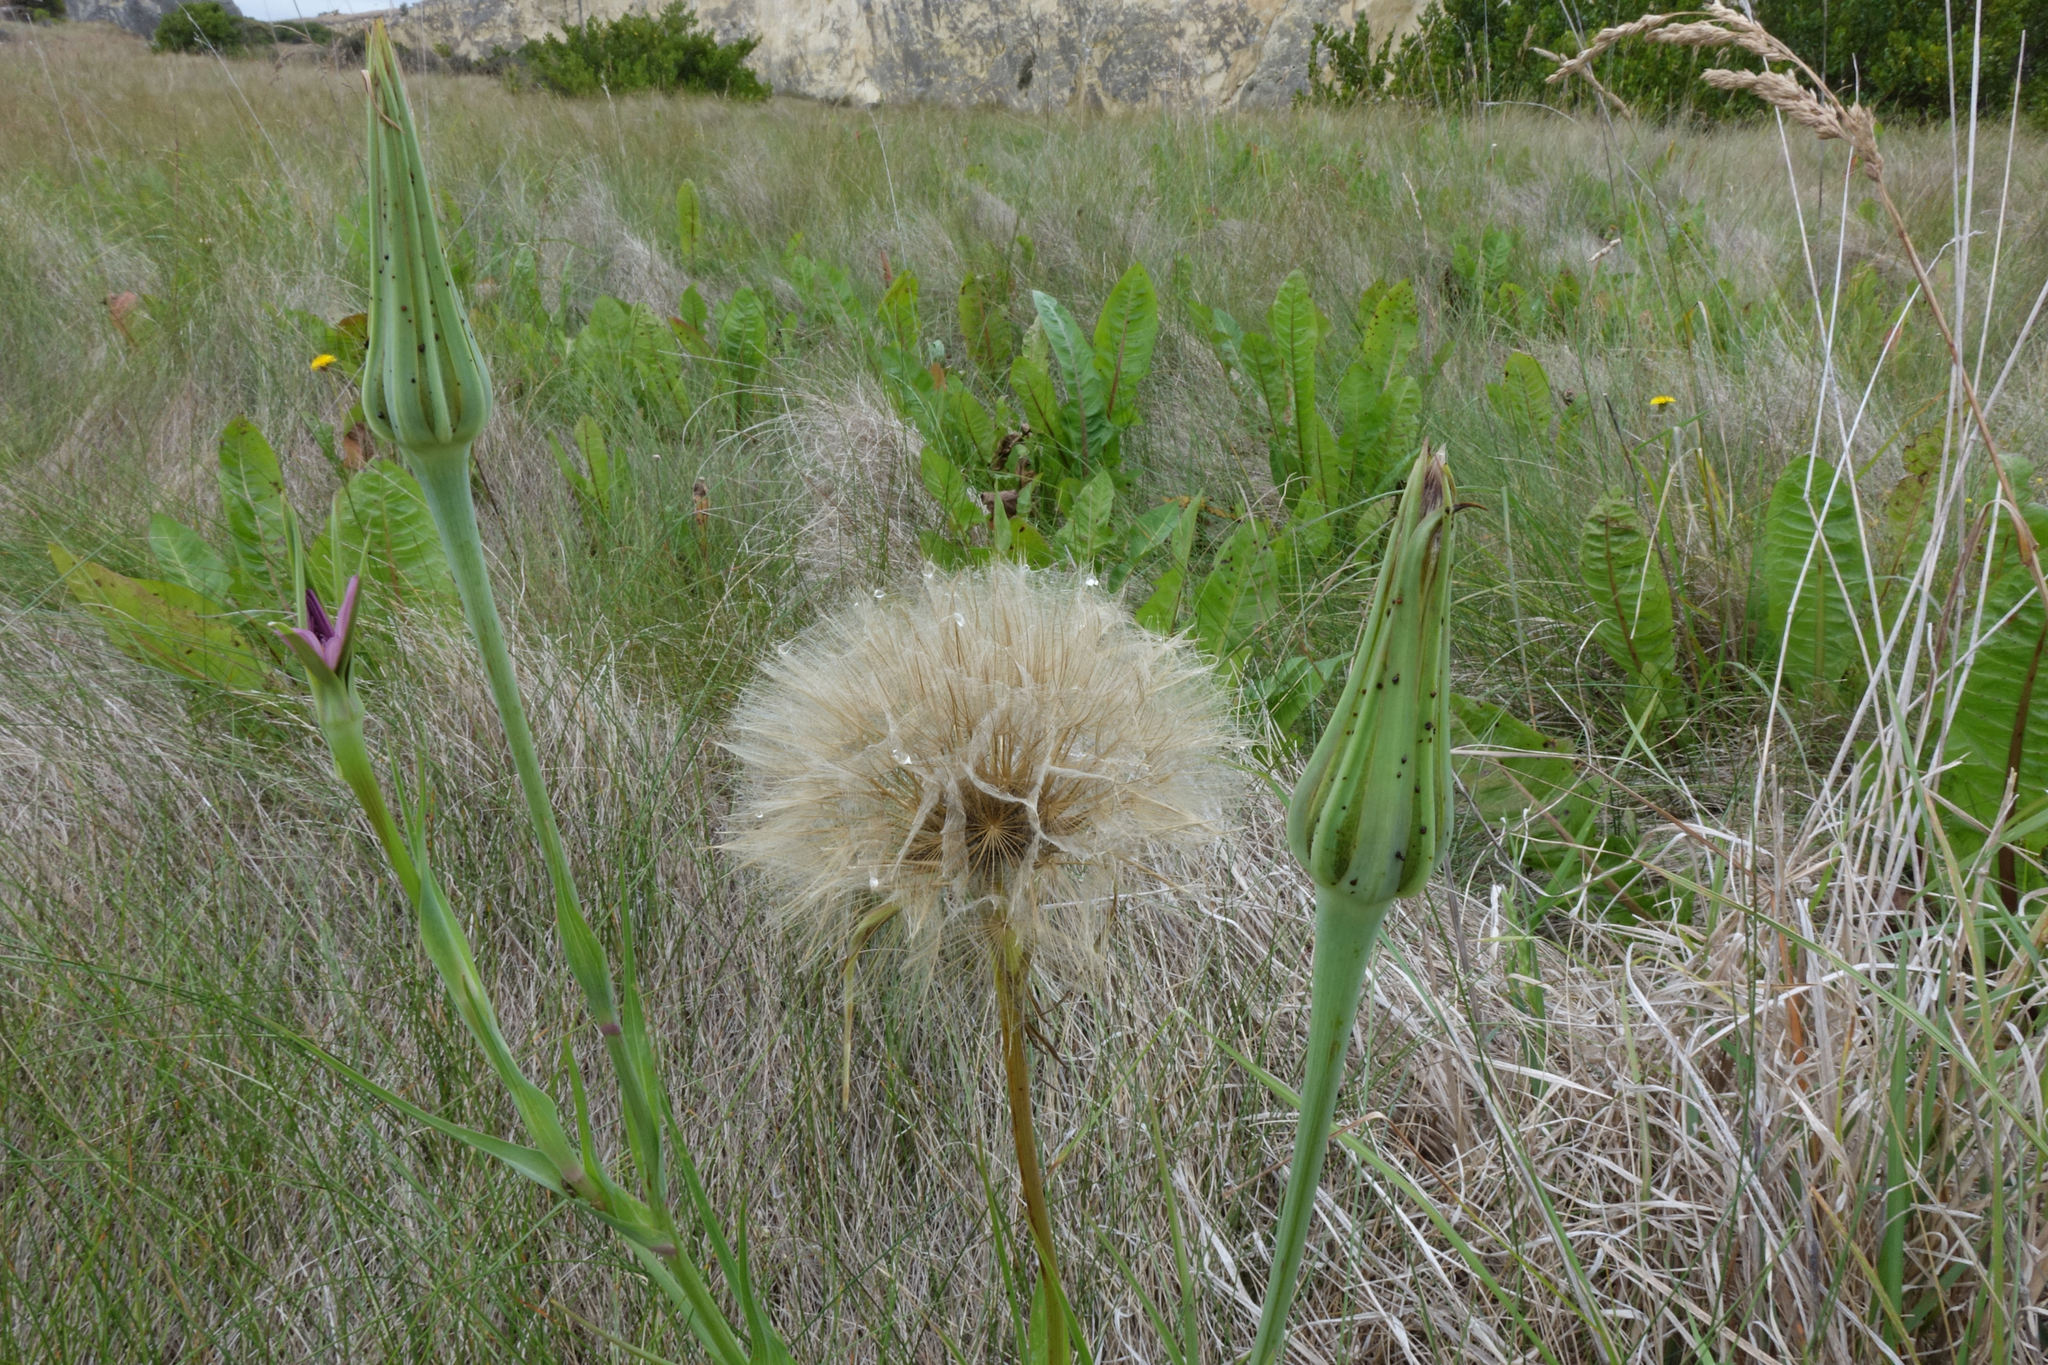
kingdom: Plantae
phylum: Tracheophyta
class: Magnoliopsida
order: Asterales
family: Asteraceae
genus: Tragopogon
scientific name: Tragopogon porrifolius
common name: Salsify
